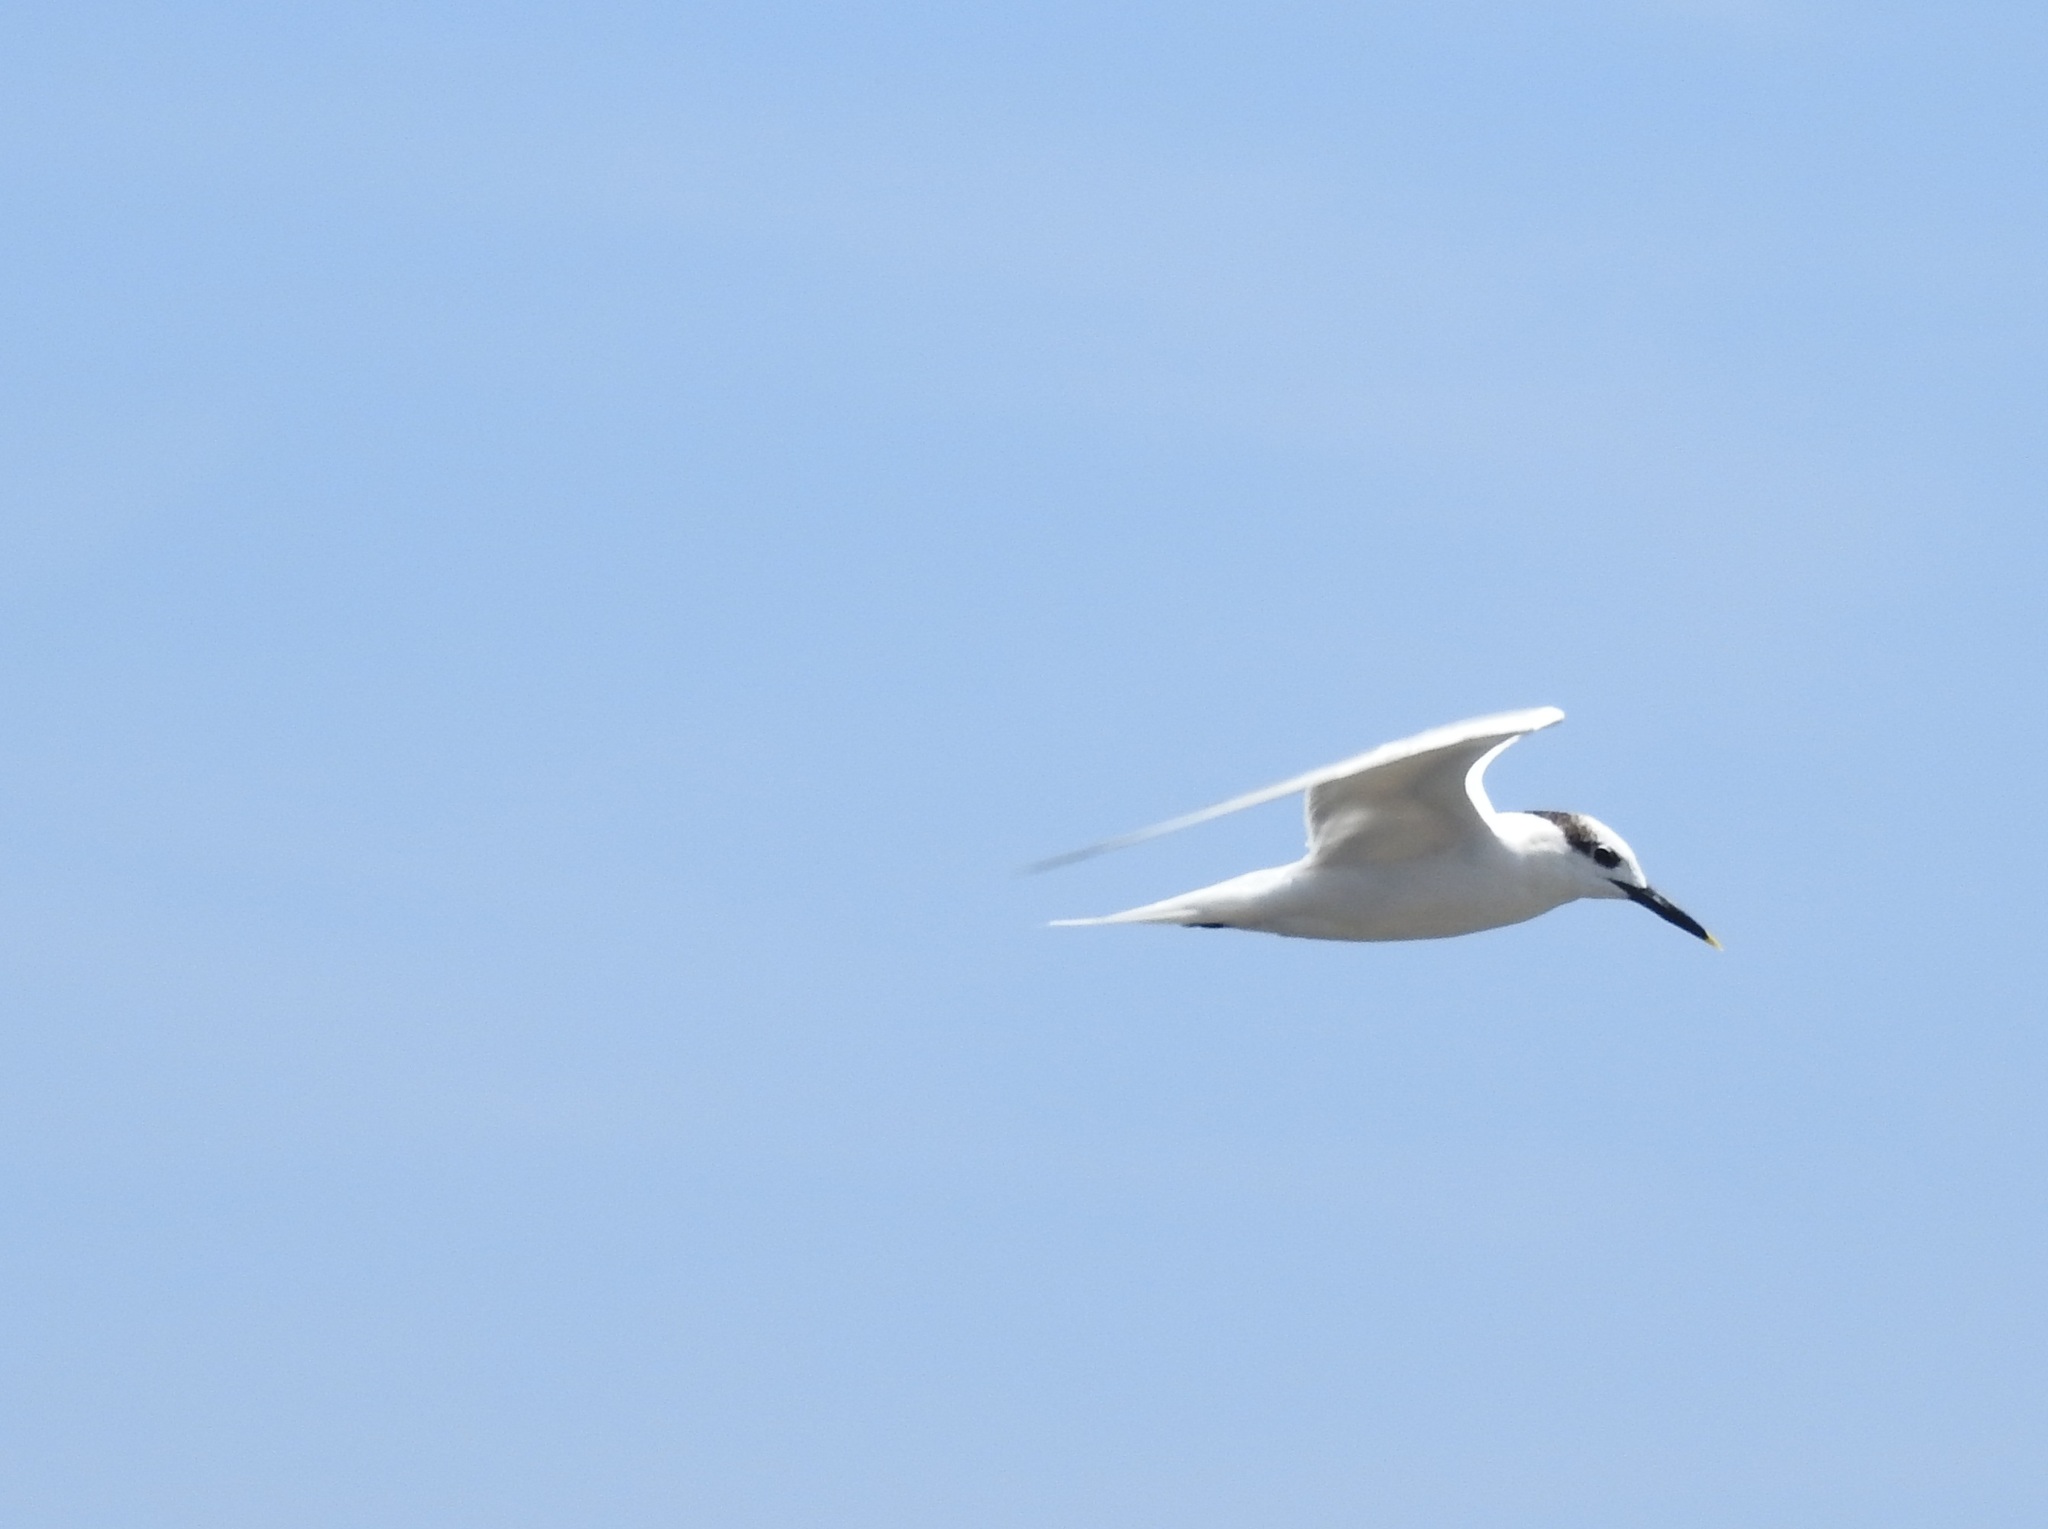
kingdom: Animalia
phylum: Chordata
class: Aves
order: Charadriiformes
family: Laridae
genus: Thalasseus
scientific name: Thalasseus sandvicensis
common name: Sandwich tern
